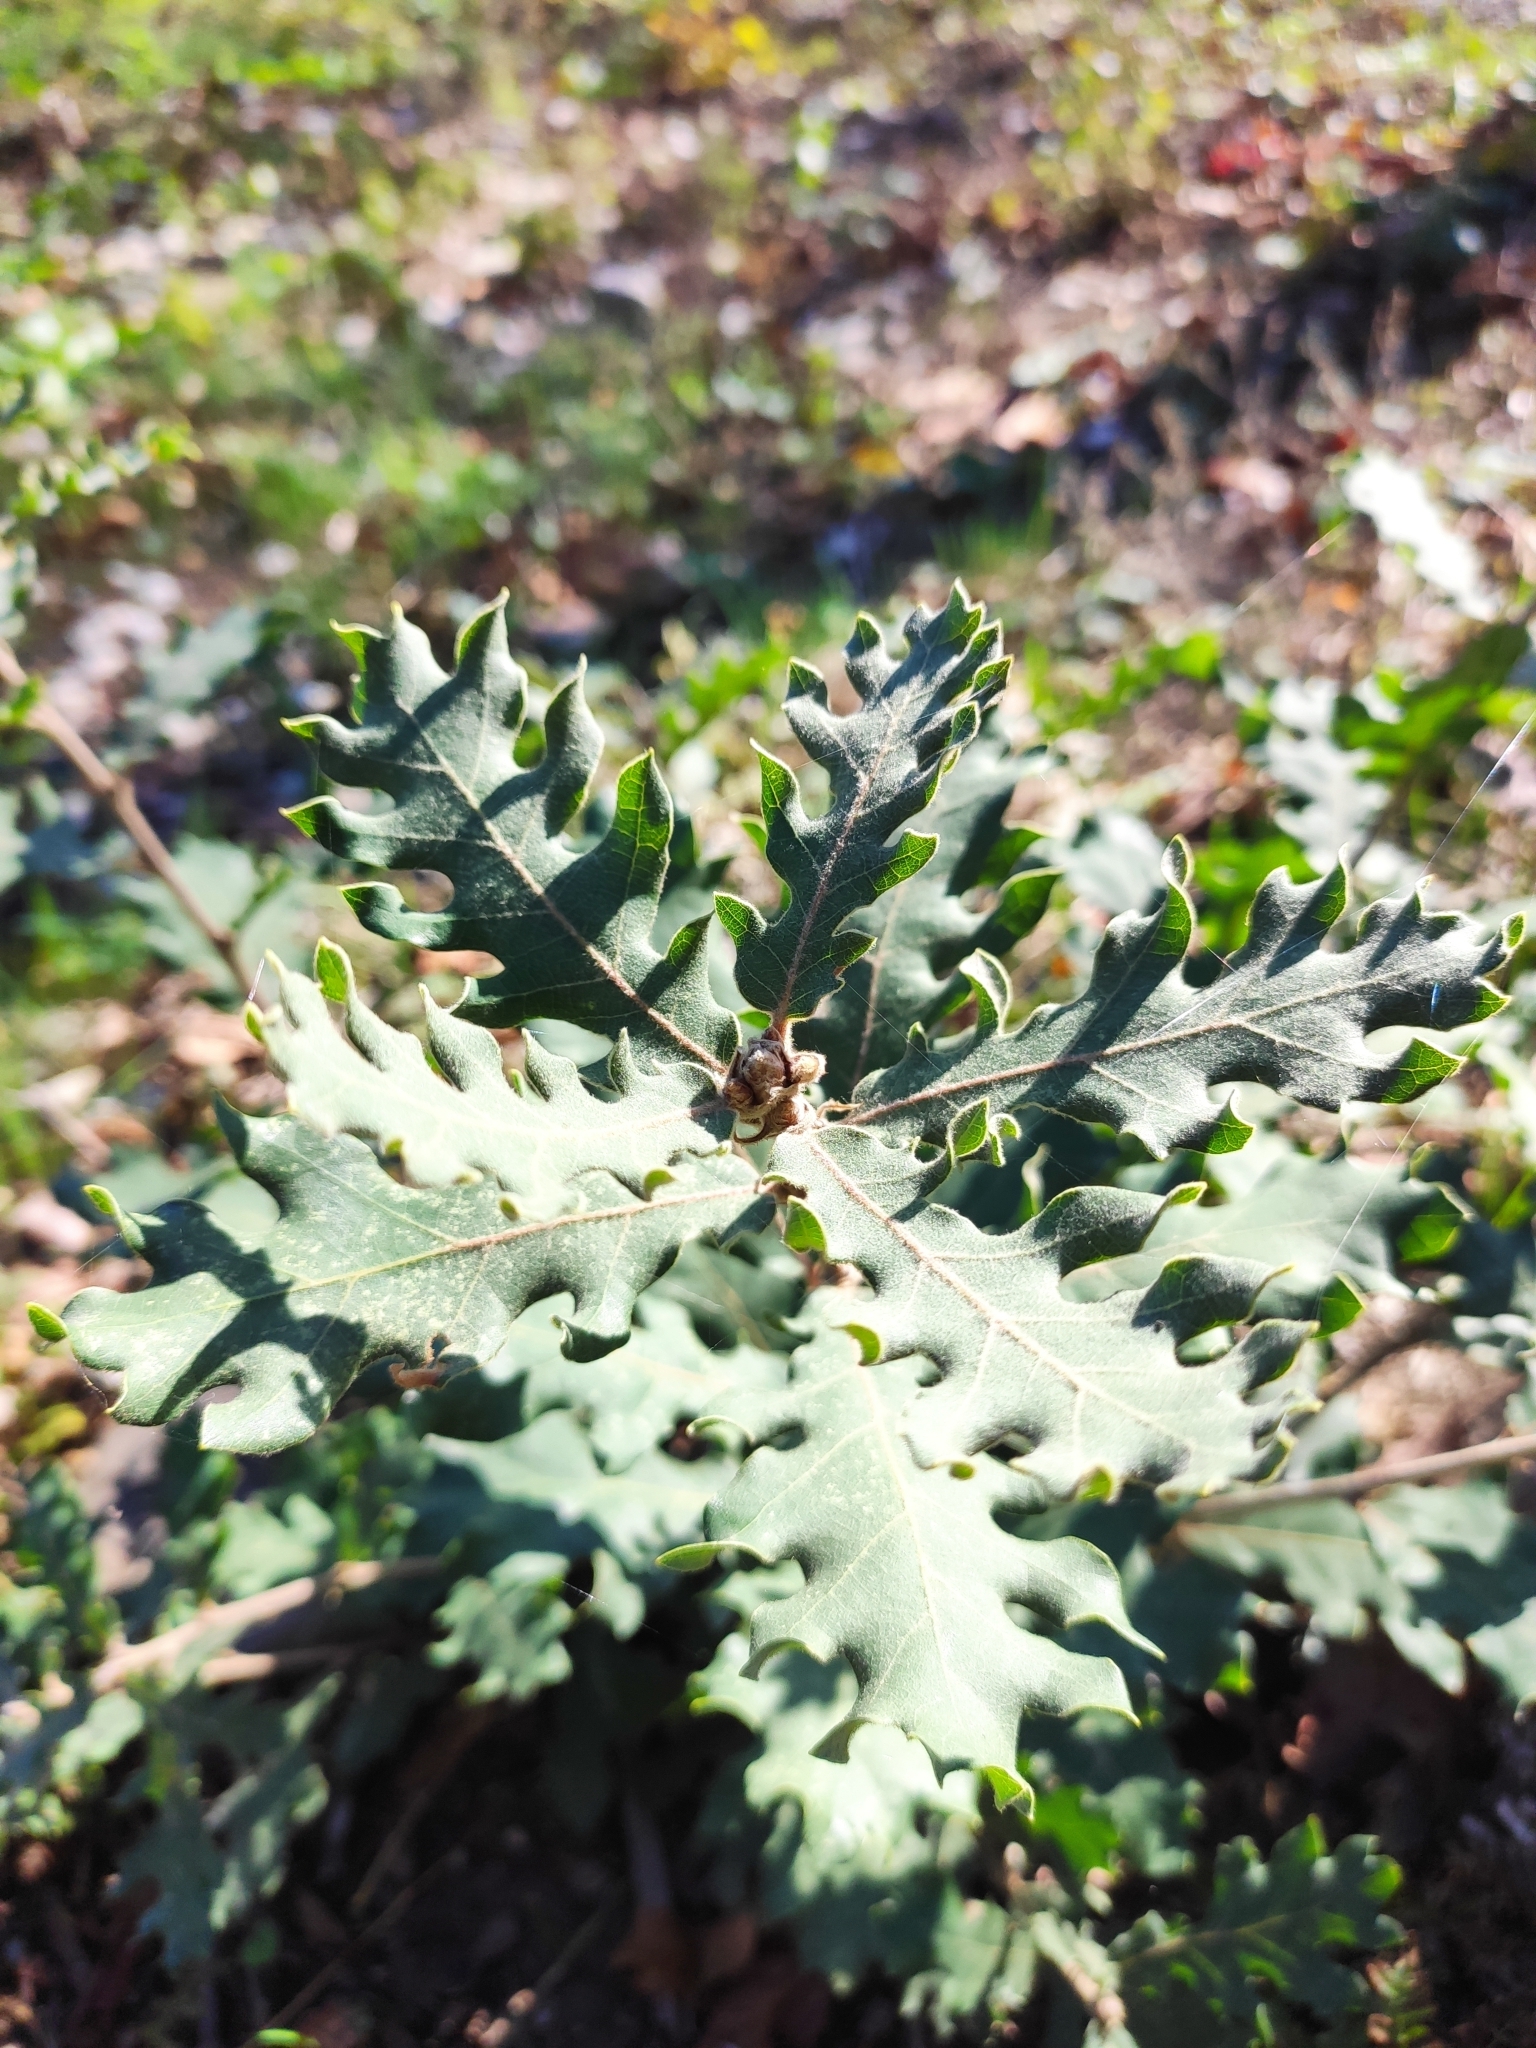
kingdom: Plantae
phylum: Tracheophyta
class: Magnoliopsida
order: Fagales
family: Fagaceae
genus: Quercus
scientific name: Quercus pubescens
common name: Downy oak
